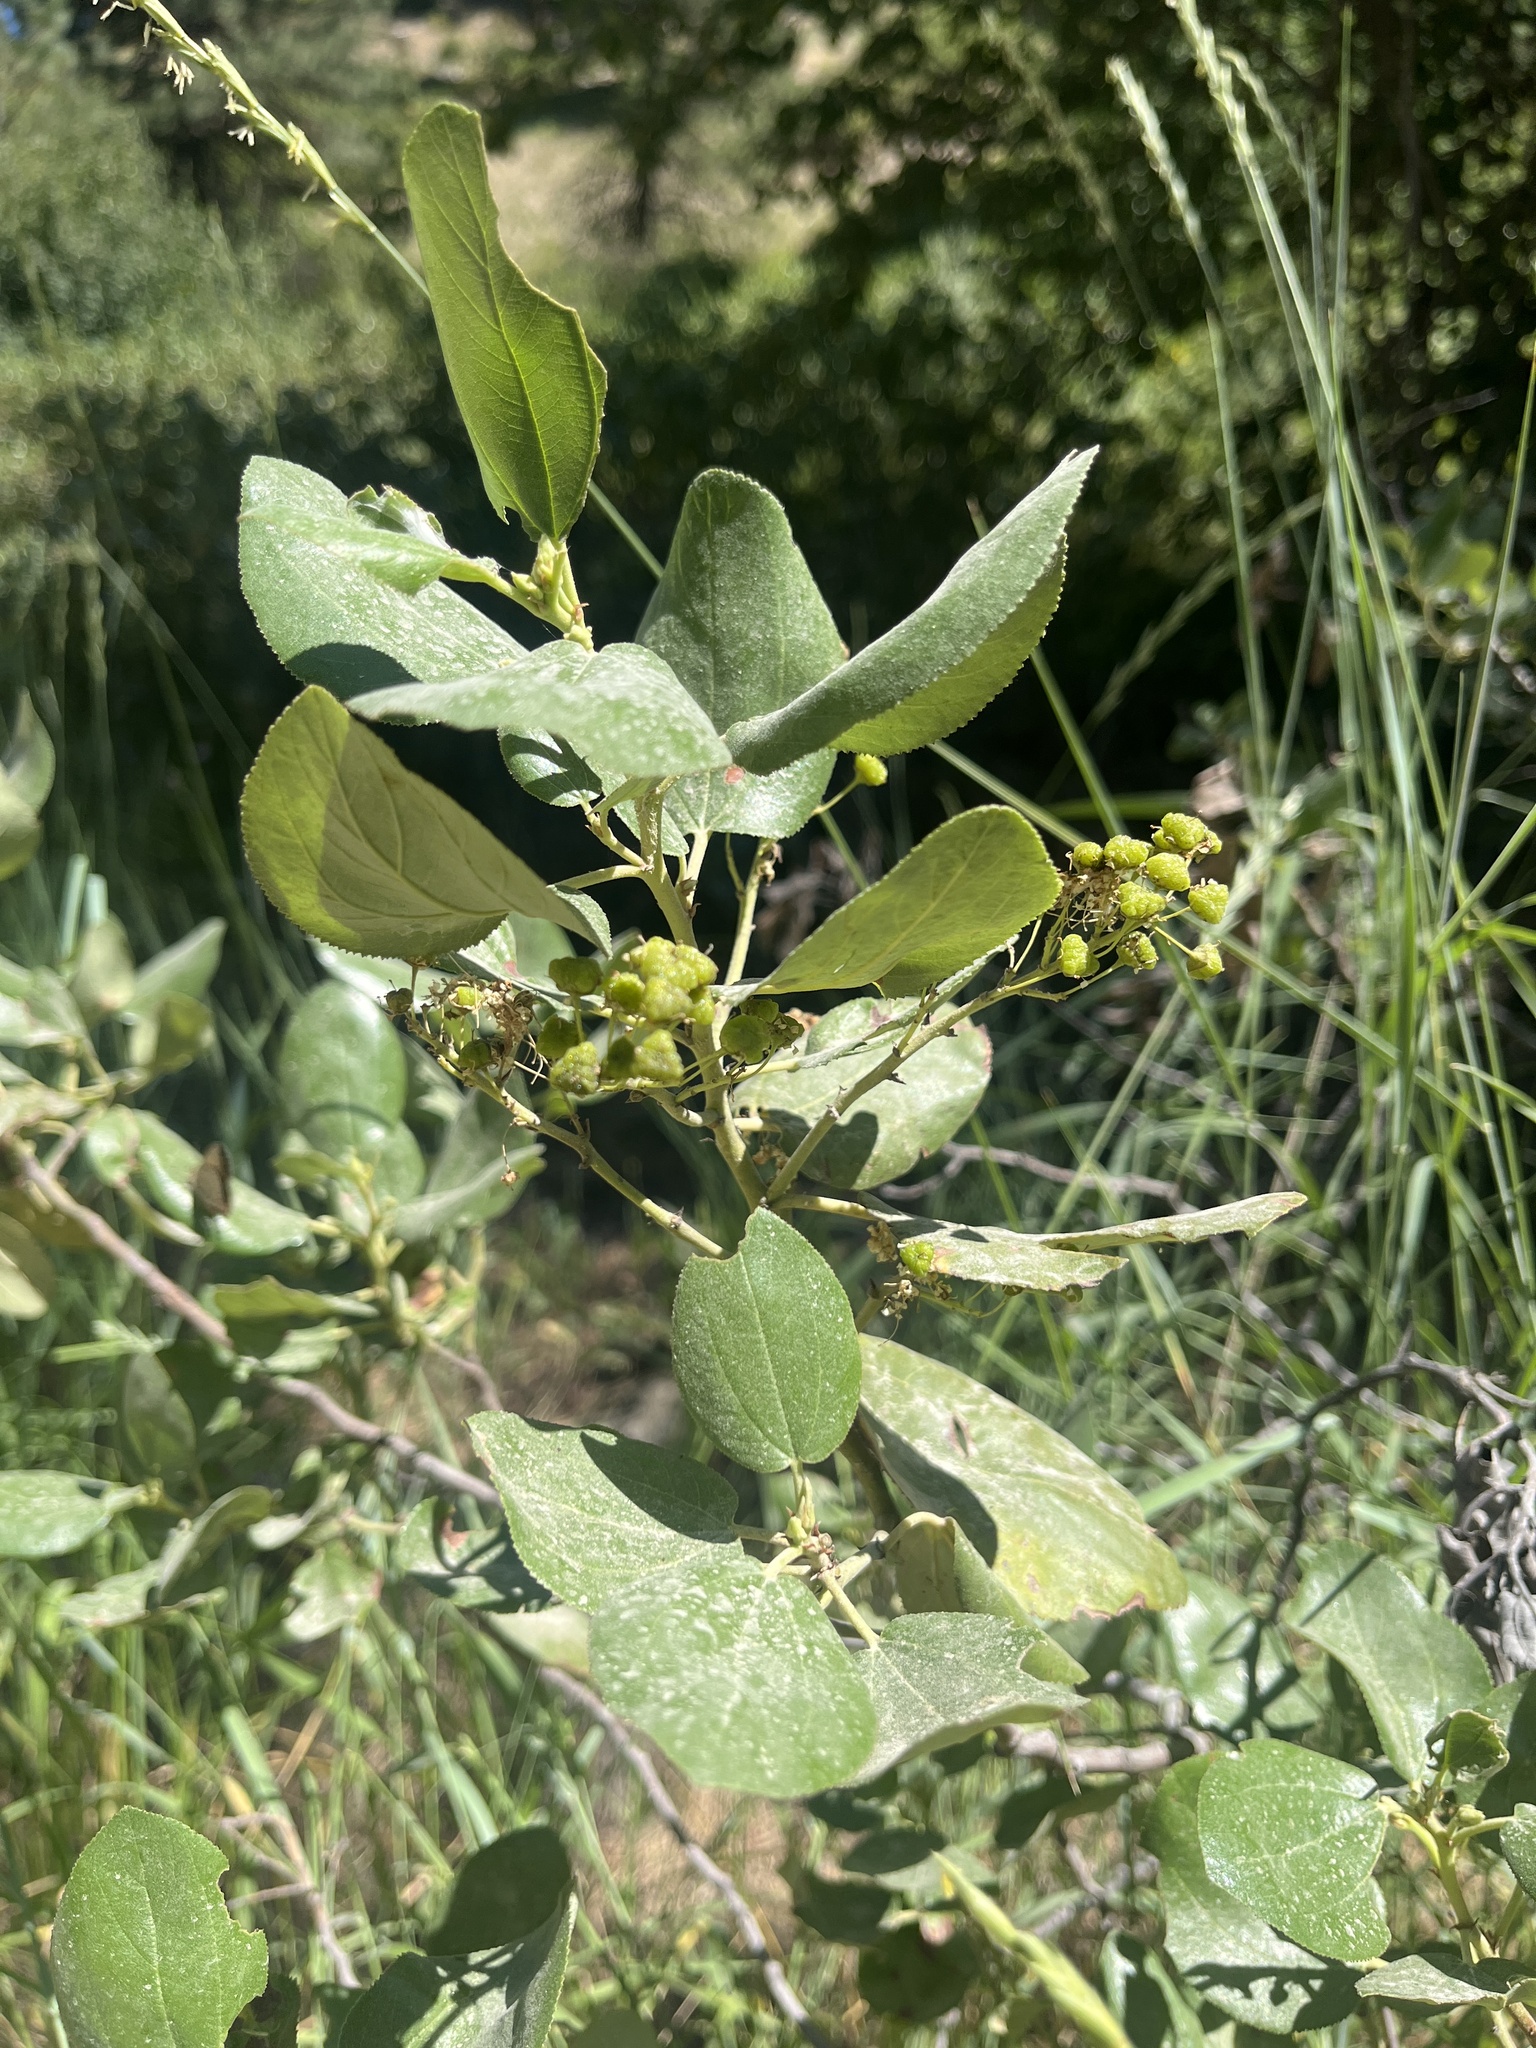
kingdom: Plantae
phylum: Tracheophyta
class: Magnoliopsida
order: Rosales
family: Rhamnaceae
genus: Ceanothus
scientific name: Ceanothus velutinus
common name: Snowbrush
